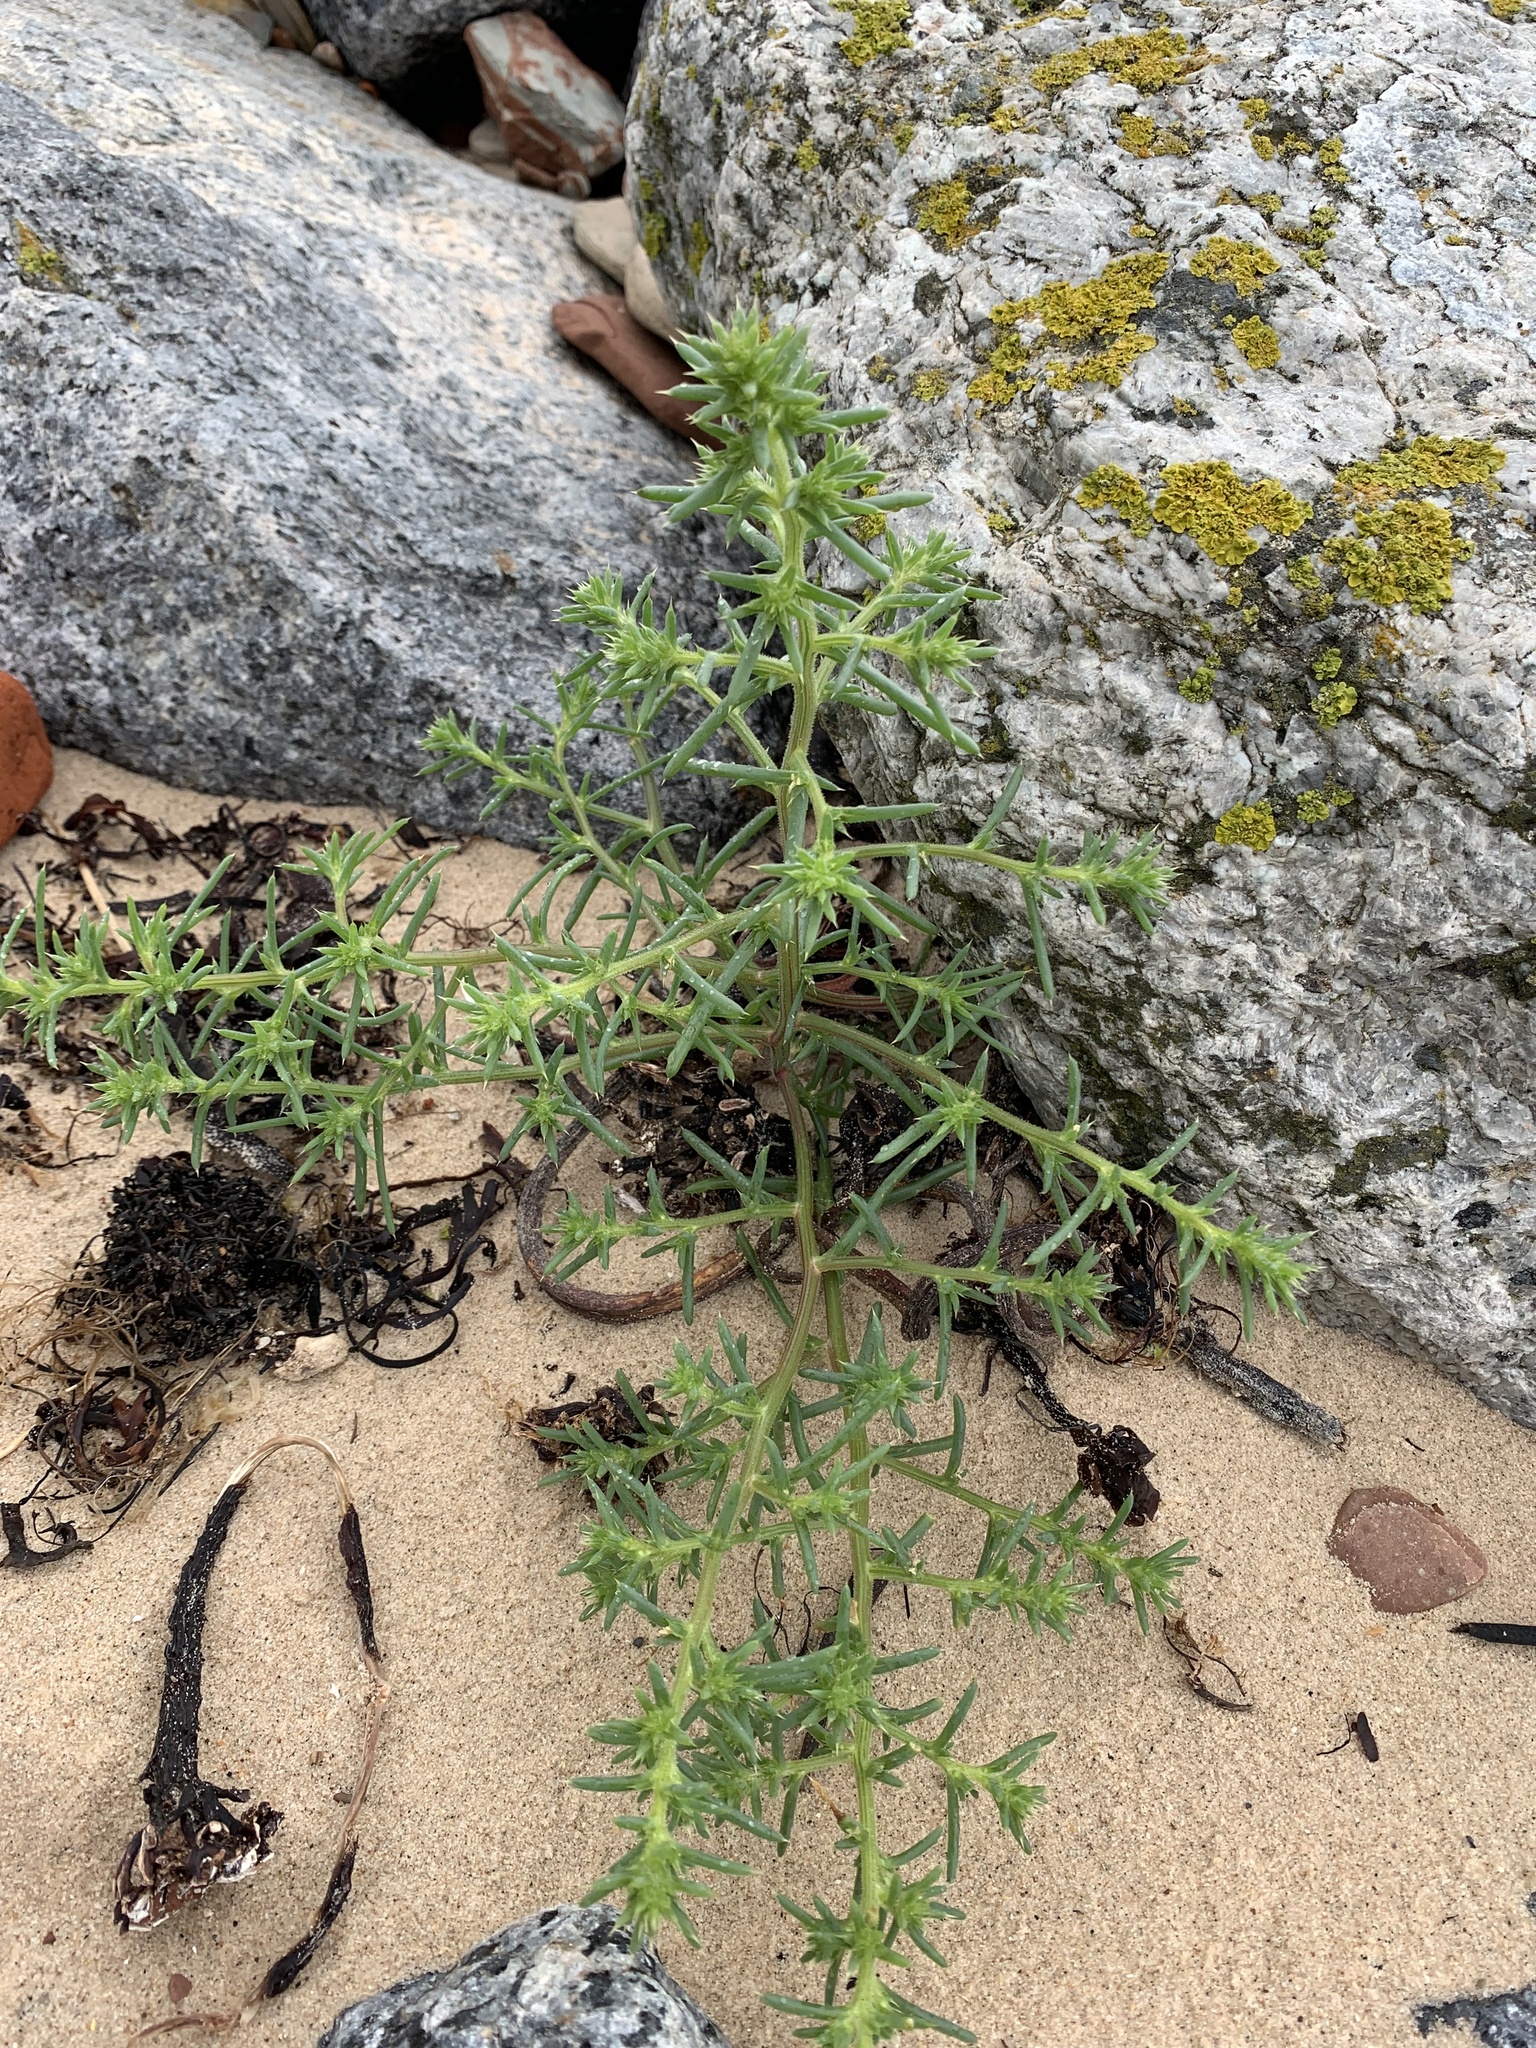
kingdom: Plantae
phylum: Tracheophyta
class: Magnoliopsida
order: Caryophyllales
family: Amaranthaceae
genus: Salsola
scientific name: Salsola kali
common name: Saltwort
